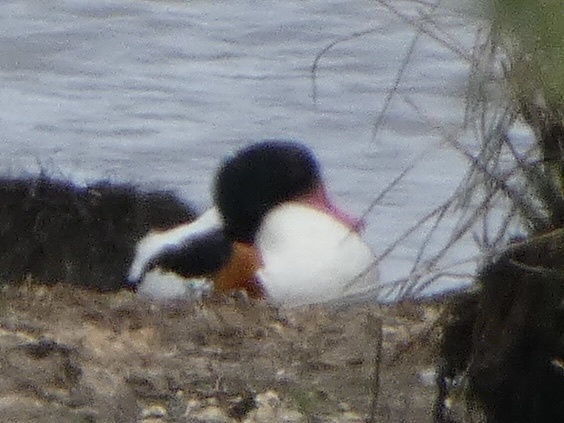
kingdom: Animalia
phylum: Chordata
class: Aves
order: Anseriformes
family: Anatidae
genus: Tadorna
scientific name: Tadorna tadorna
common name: Common shelduck
